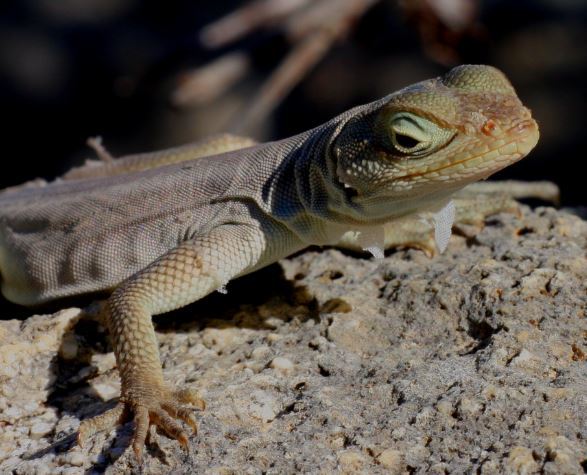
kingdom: Animalia
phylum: Chordata
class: Squamata
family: Opluridae
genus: Oplurus
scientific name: Oplurus fierinensis
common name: Anzamala madagascar swift
